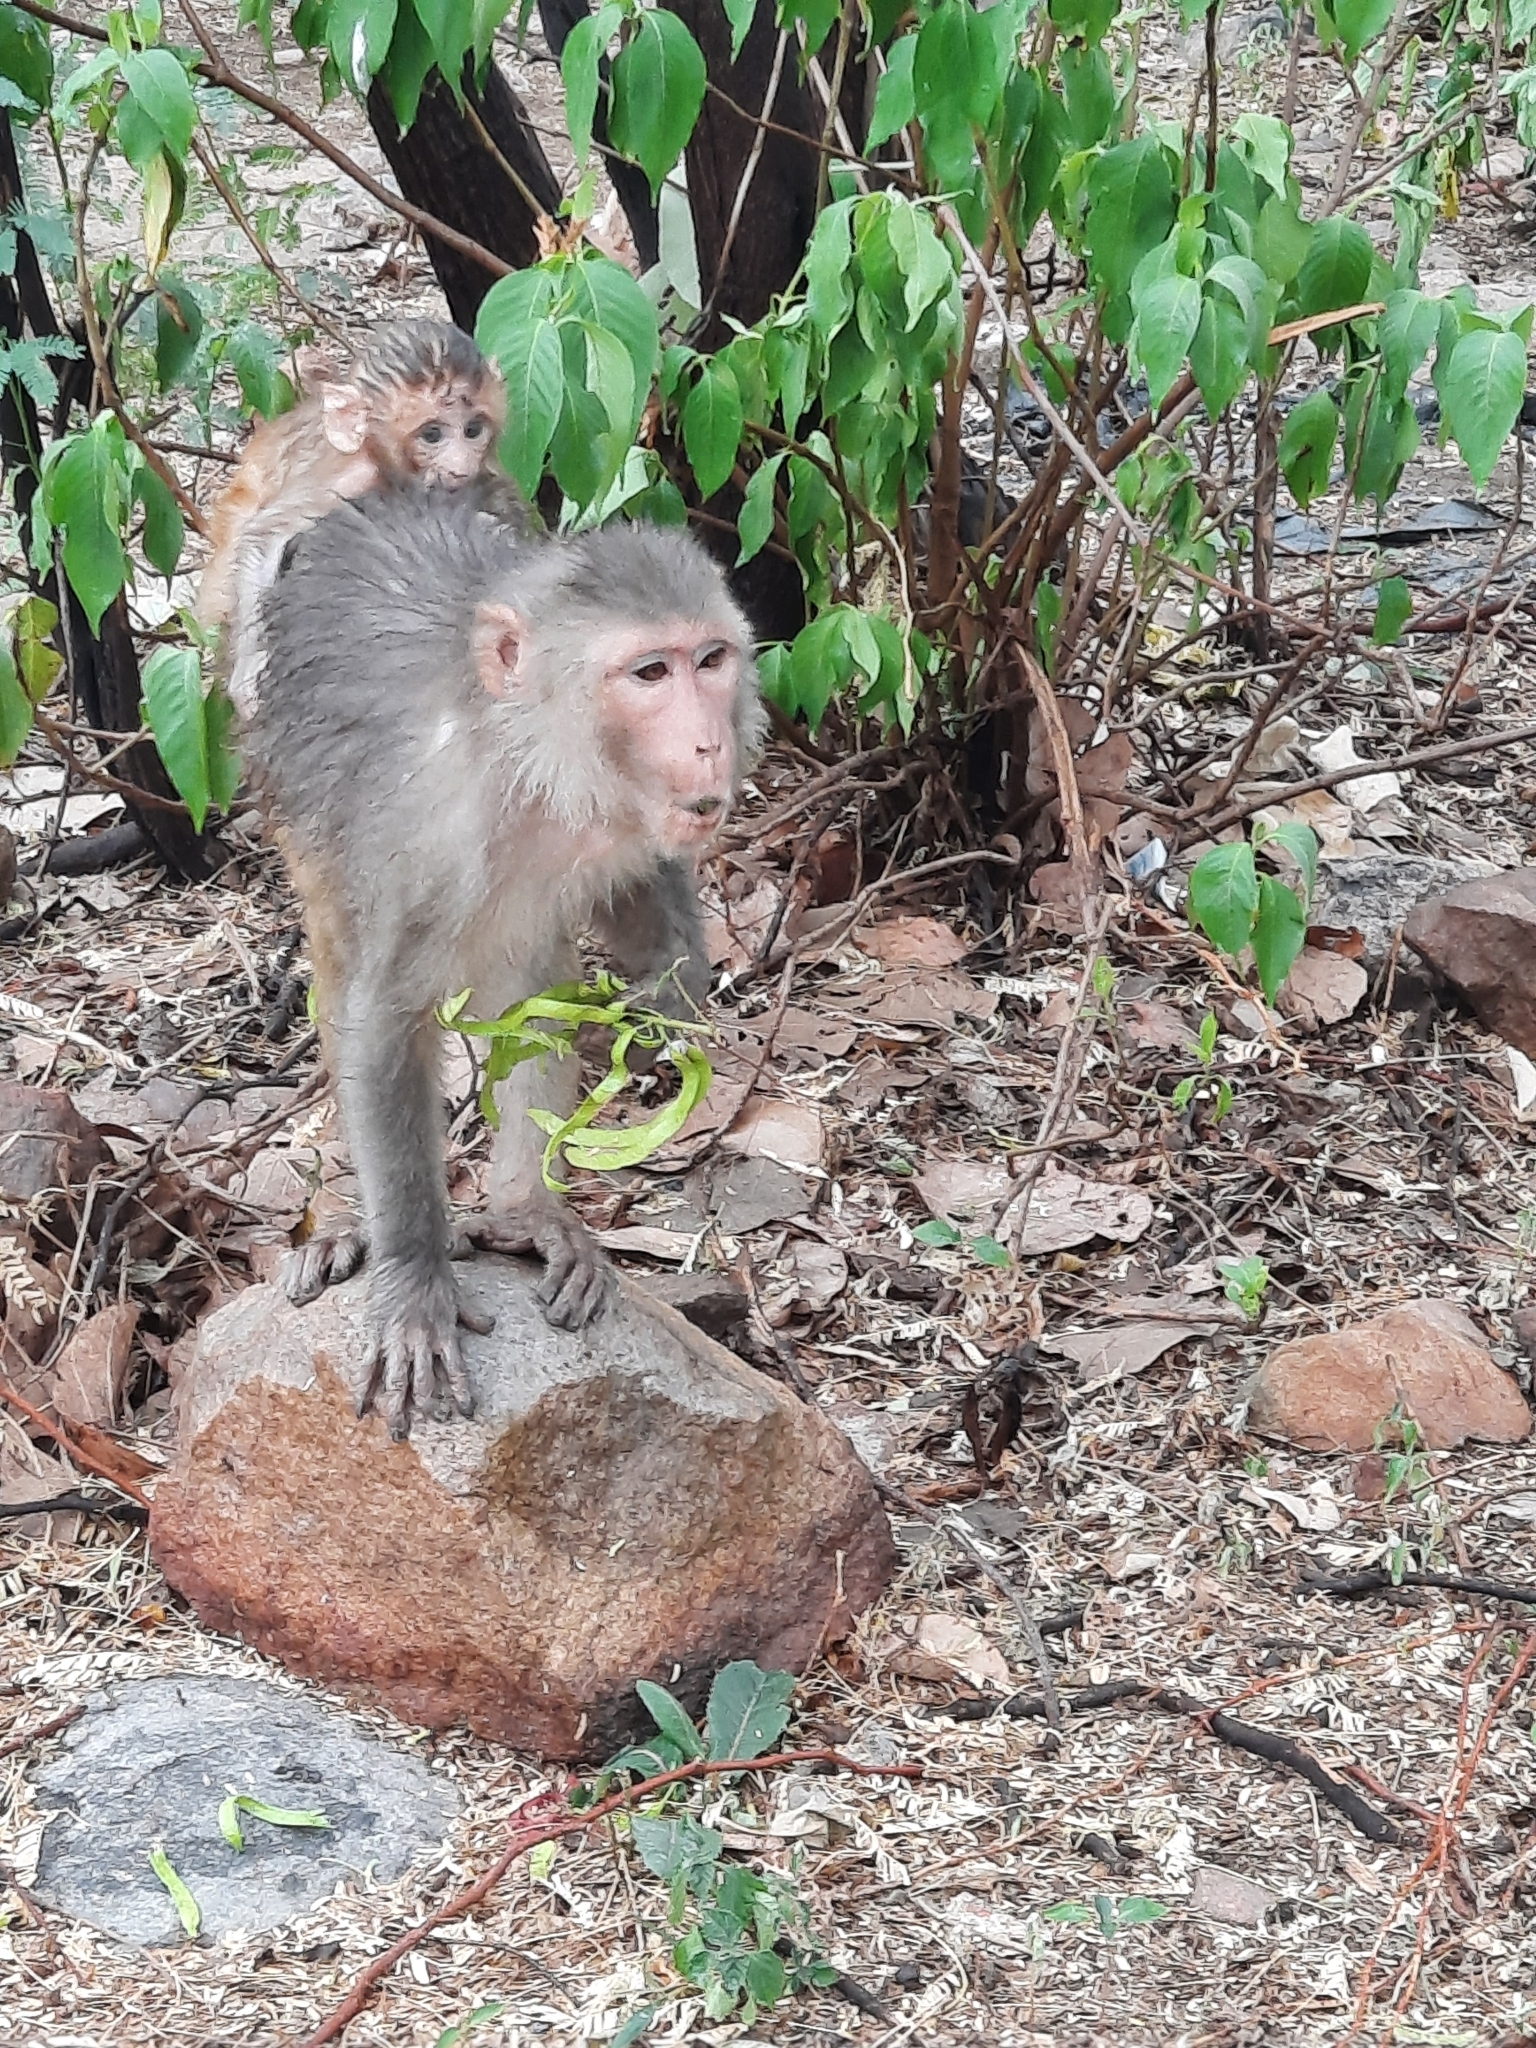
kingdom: Animalia
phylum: Chordata
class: Mammalia
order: Primates
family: Cercopithecidae
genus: Macaca
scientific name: Macaca mulatta
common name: Rhesus monkey
